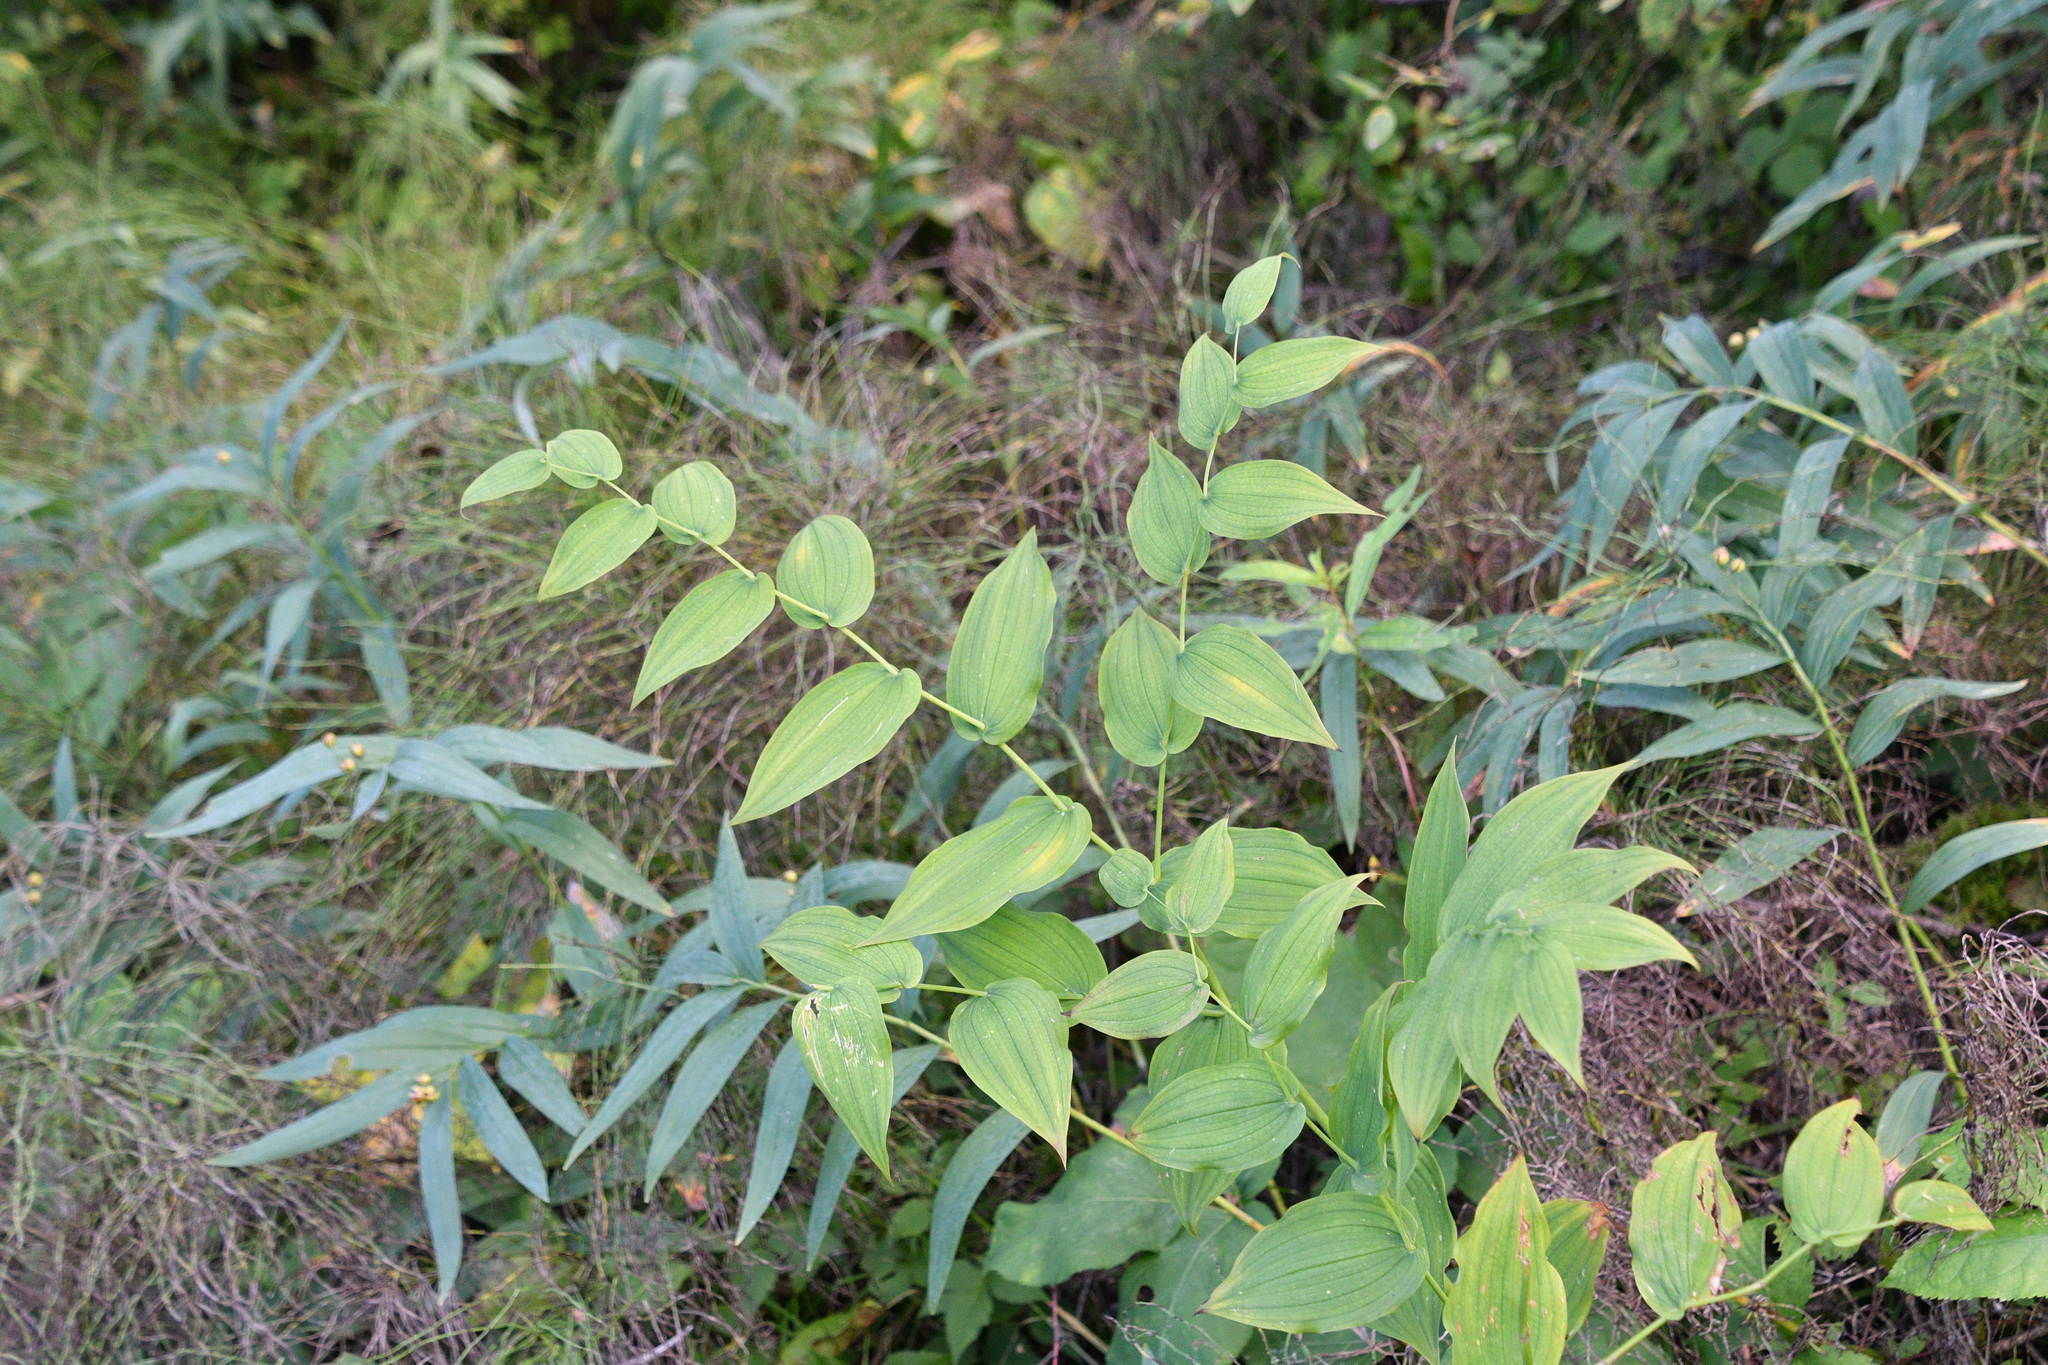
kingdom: Plantae
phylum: Tracheophyta
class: Liliopsida
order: Liliales
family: Liliaceae
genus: Streptopus
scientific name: Streptopus amplexifolius
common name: Clasp twisted stalk
